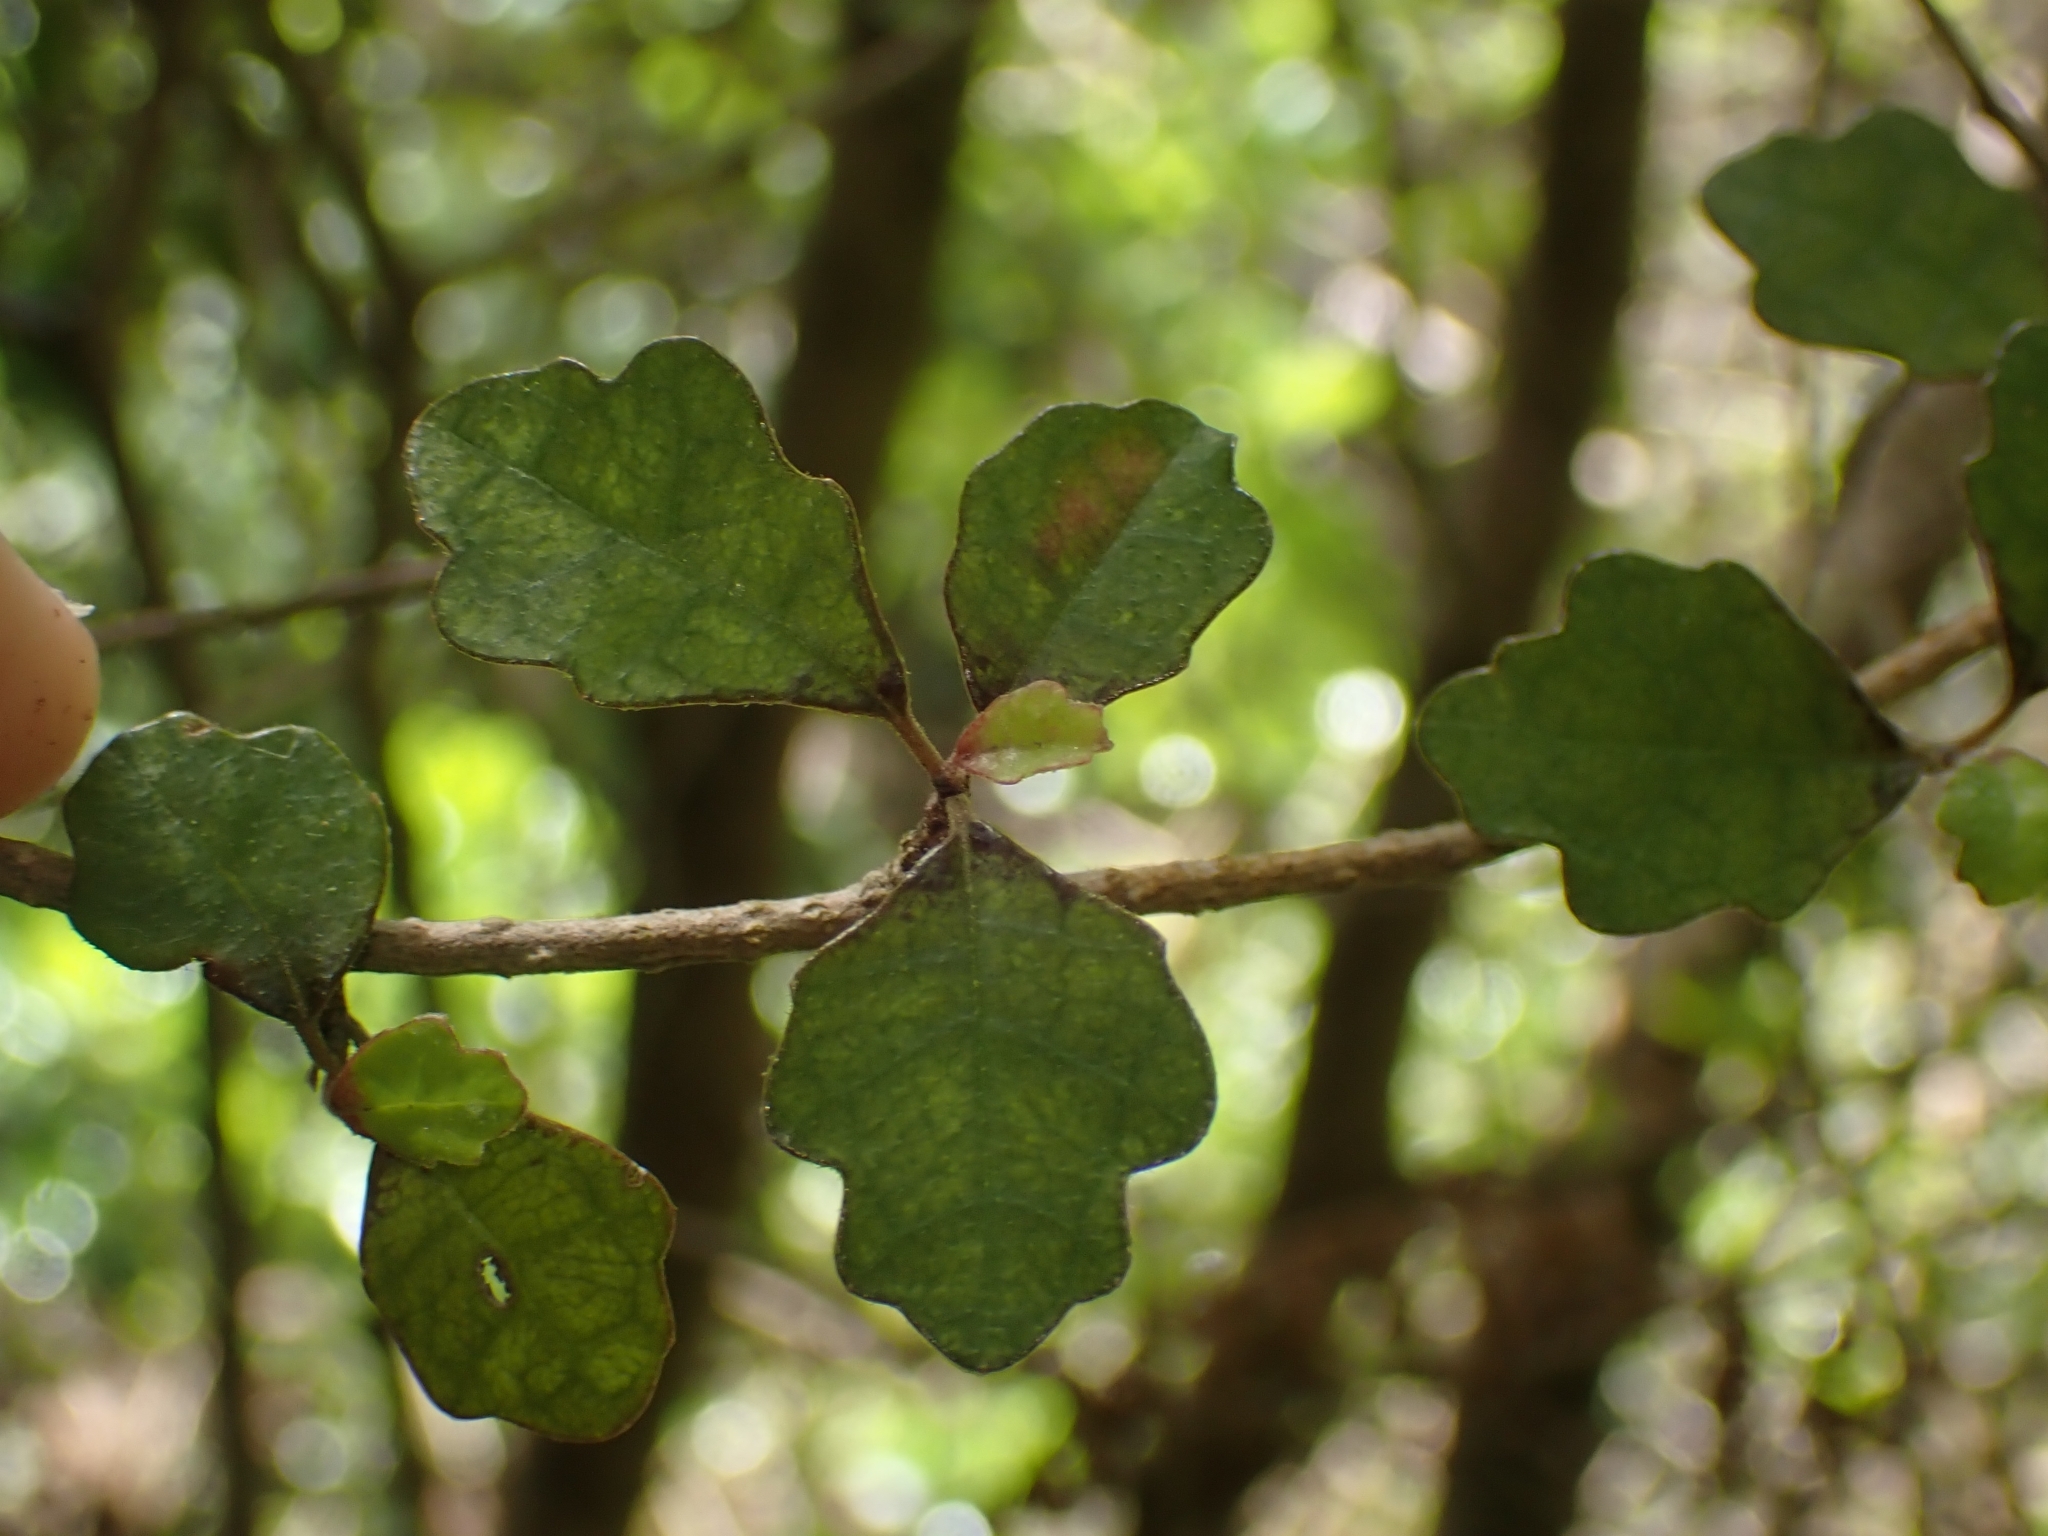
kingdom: Plantae
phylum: Tracheophyta
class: Magnoliopsida
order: Apiales
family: Pennantiaceae
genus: Pennantia
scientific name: Pennantia corymbosa
